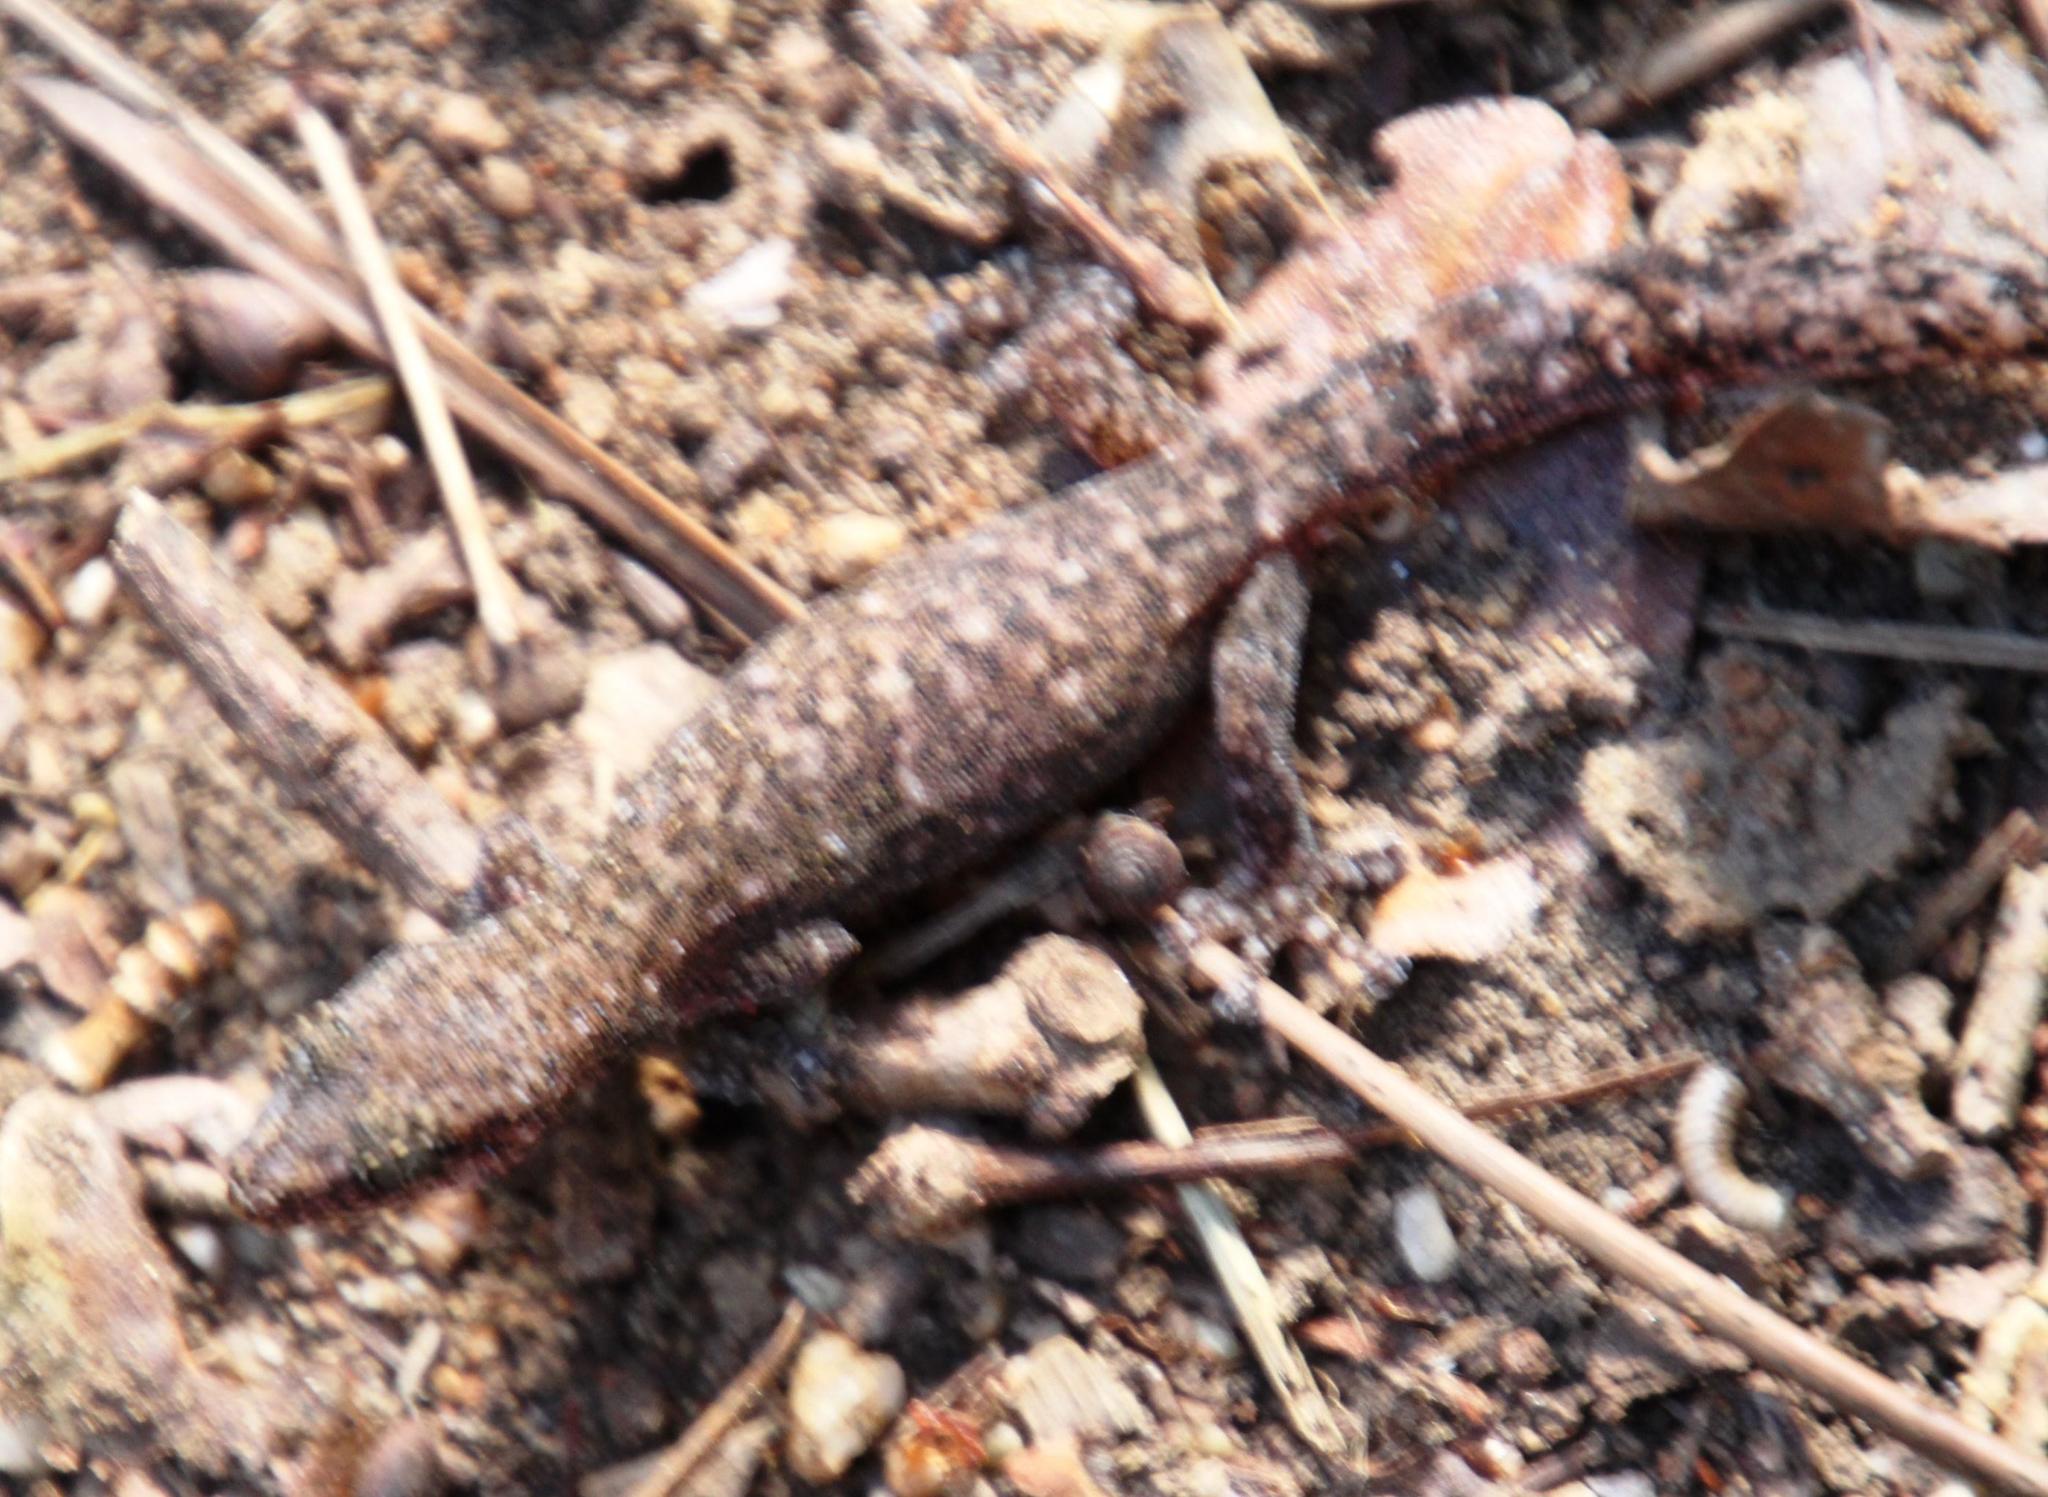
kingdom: Animalia
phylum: Chordata
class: Squamata
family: Gekkonidae
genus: Afrogecko
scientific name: Afrogecko porphyreus
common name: Marbled leaf-toed gecko
